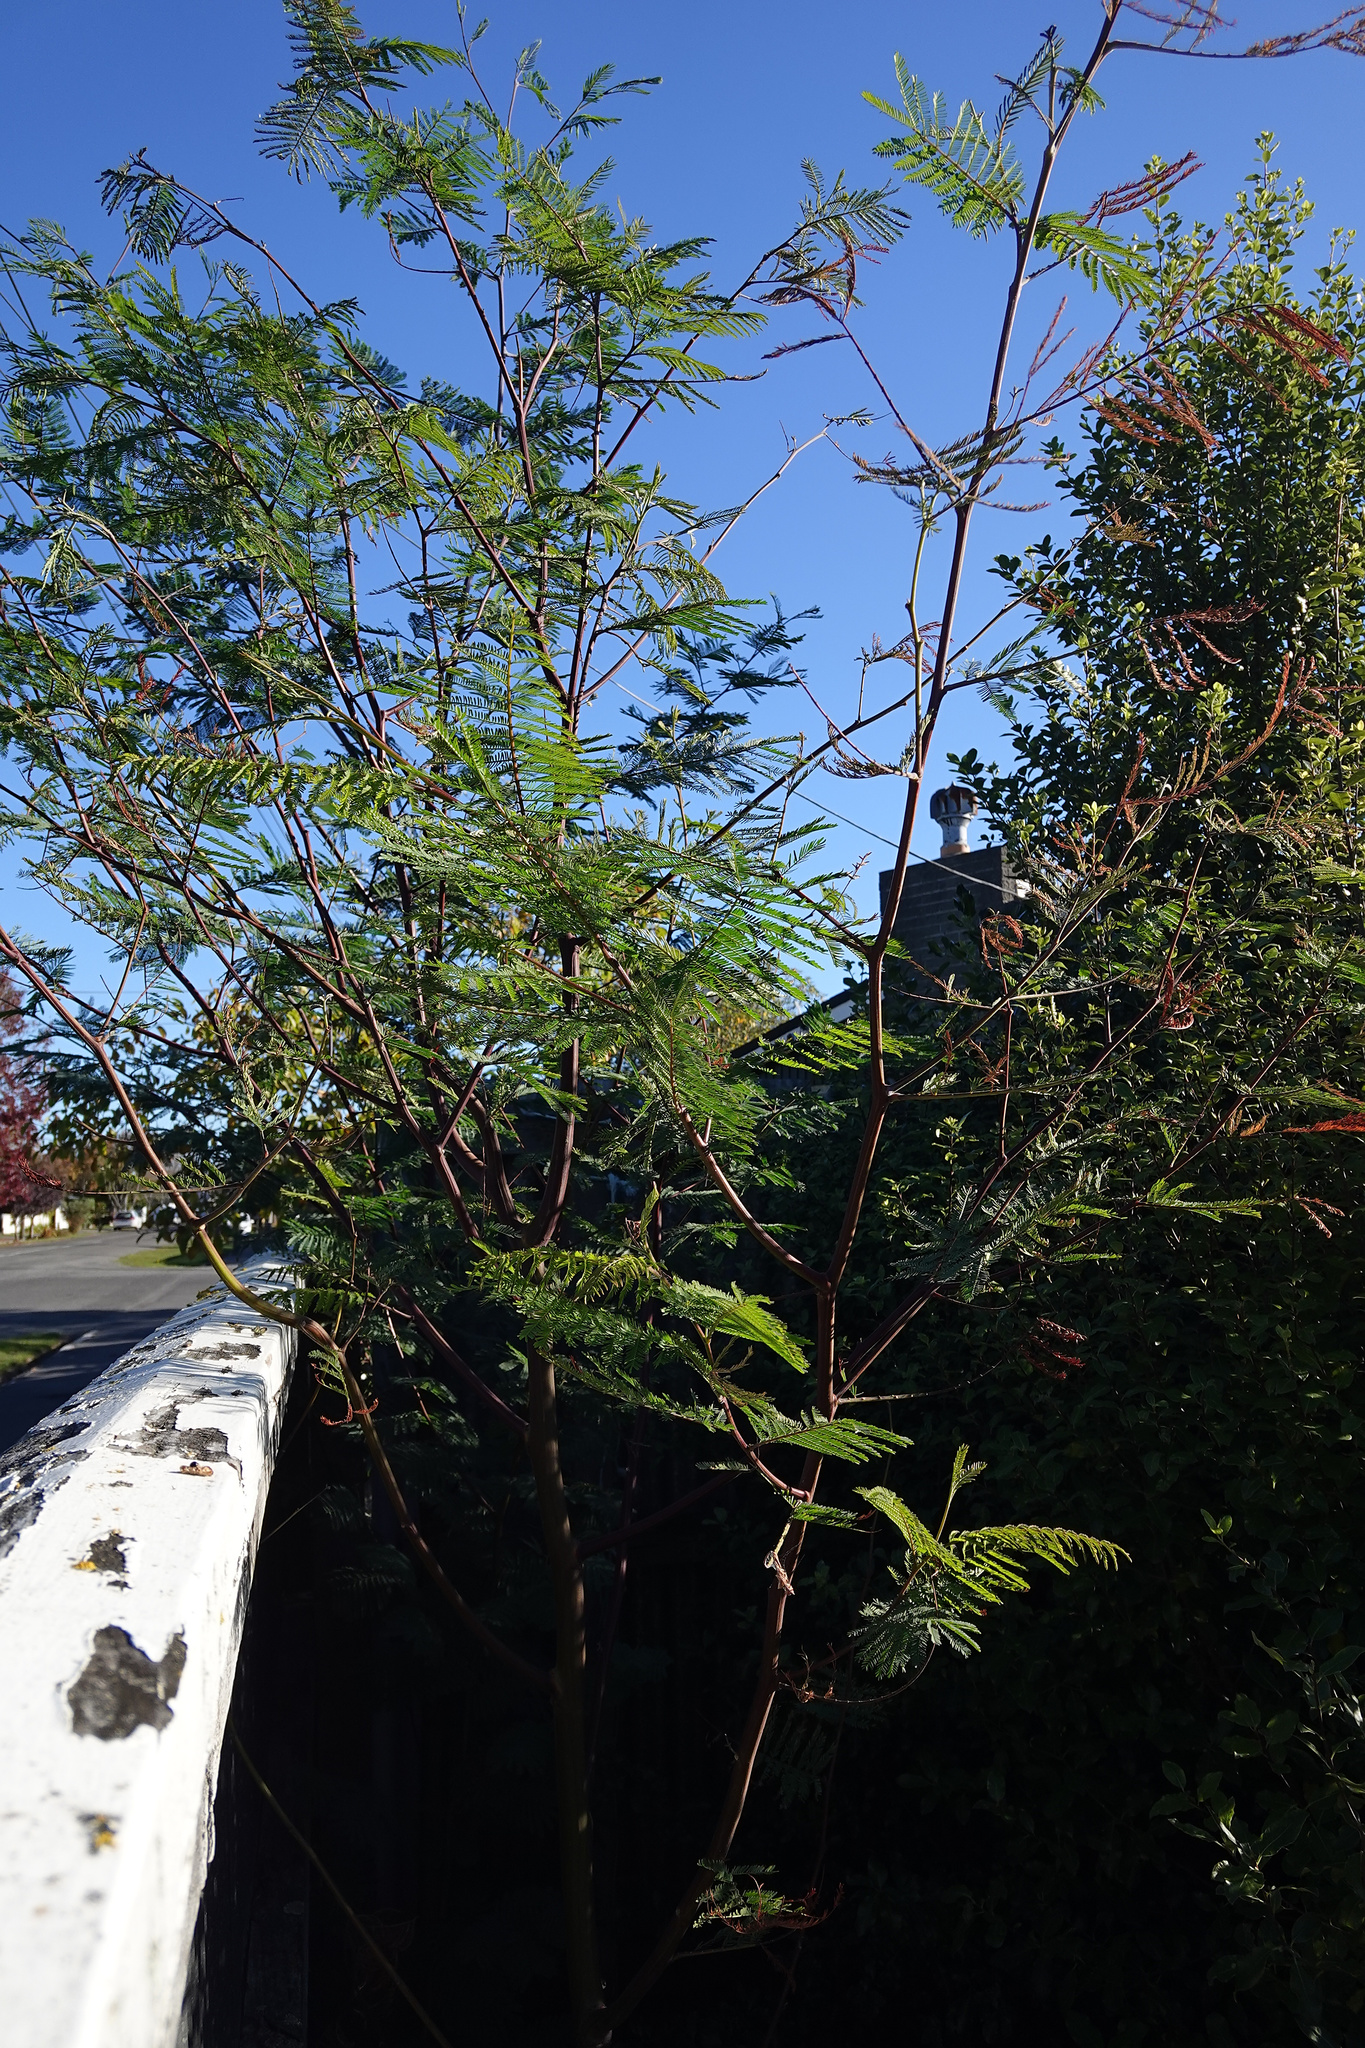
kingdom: Plantae
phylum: Tracheophyta
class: Magnoliopsida
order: Fabales
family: Fabaceae
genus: Paraserianthes
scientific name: Paraserianthes lophantha
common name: Plume albizia
